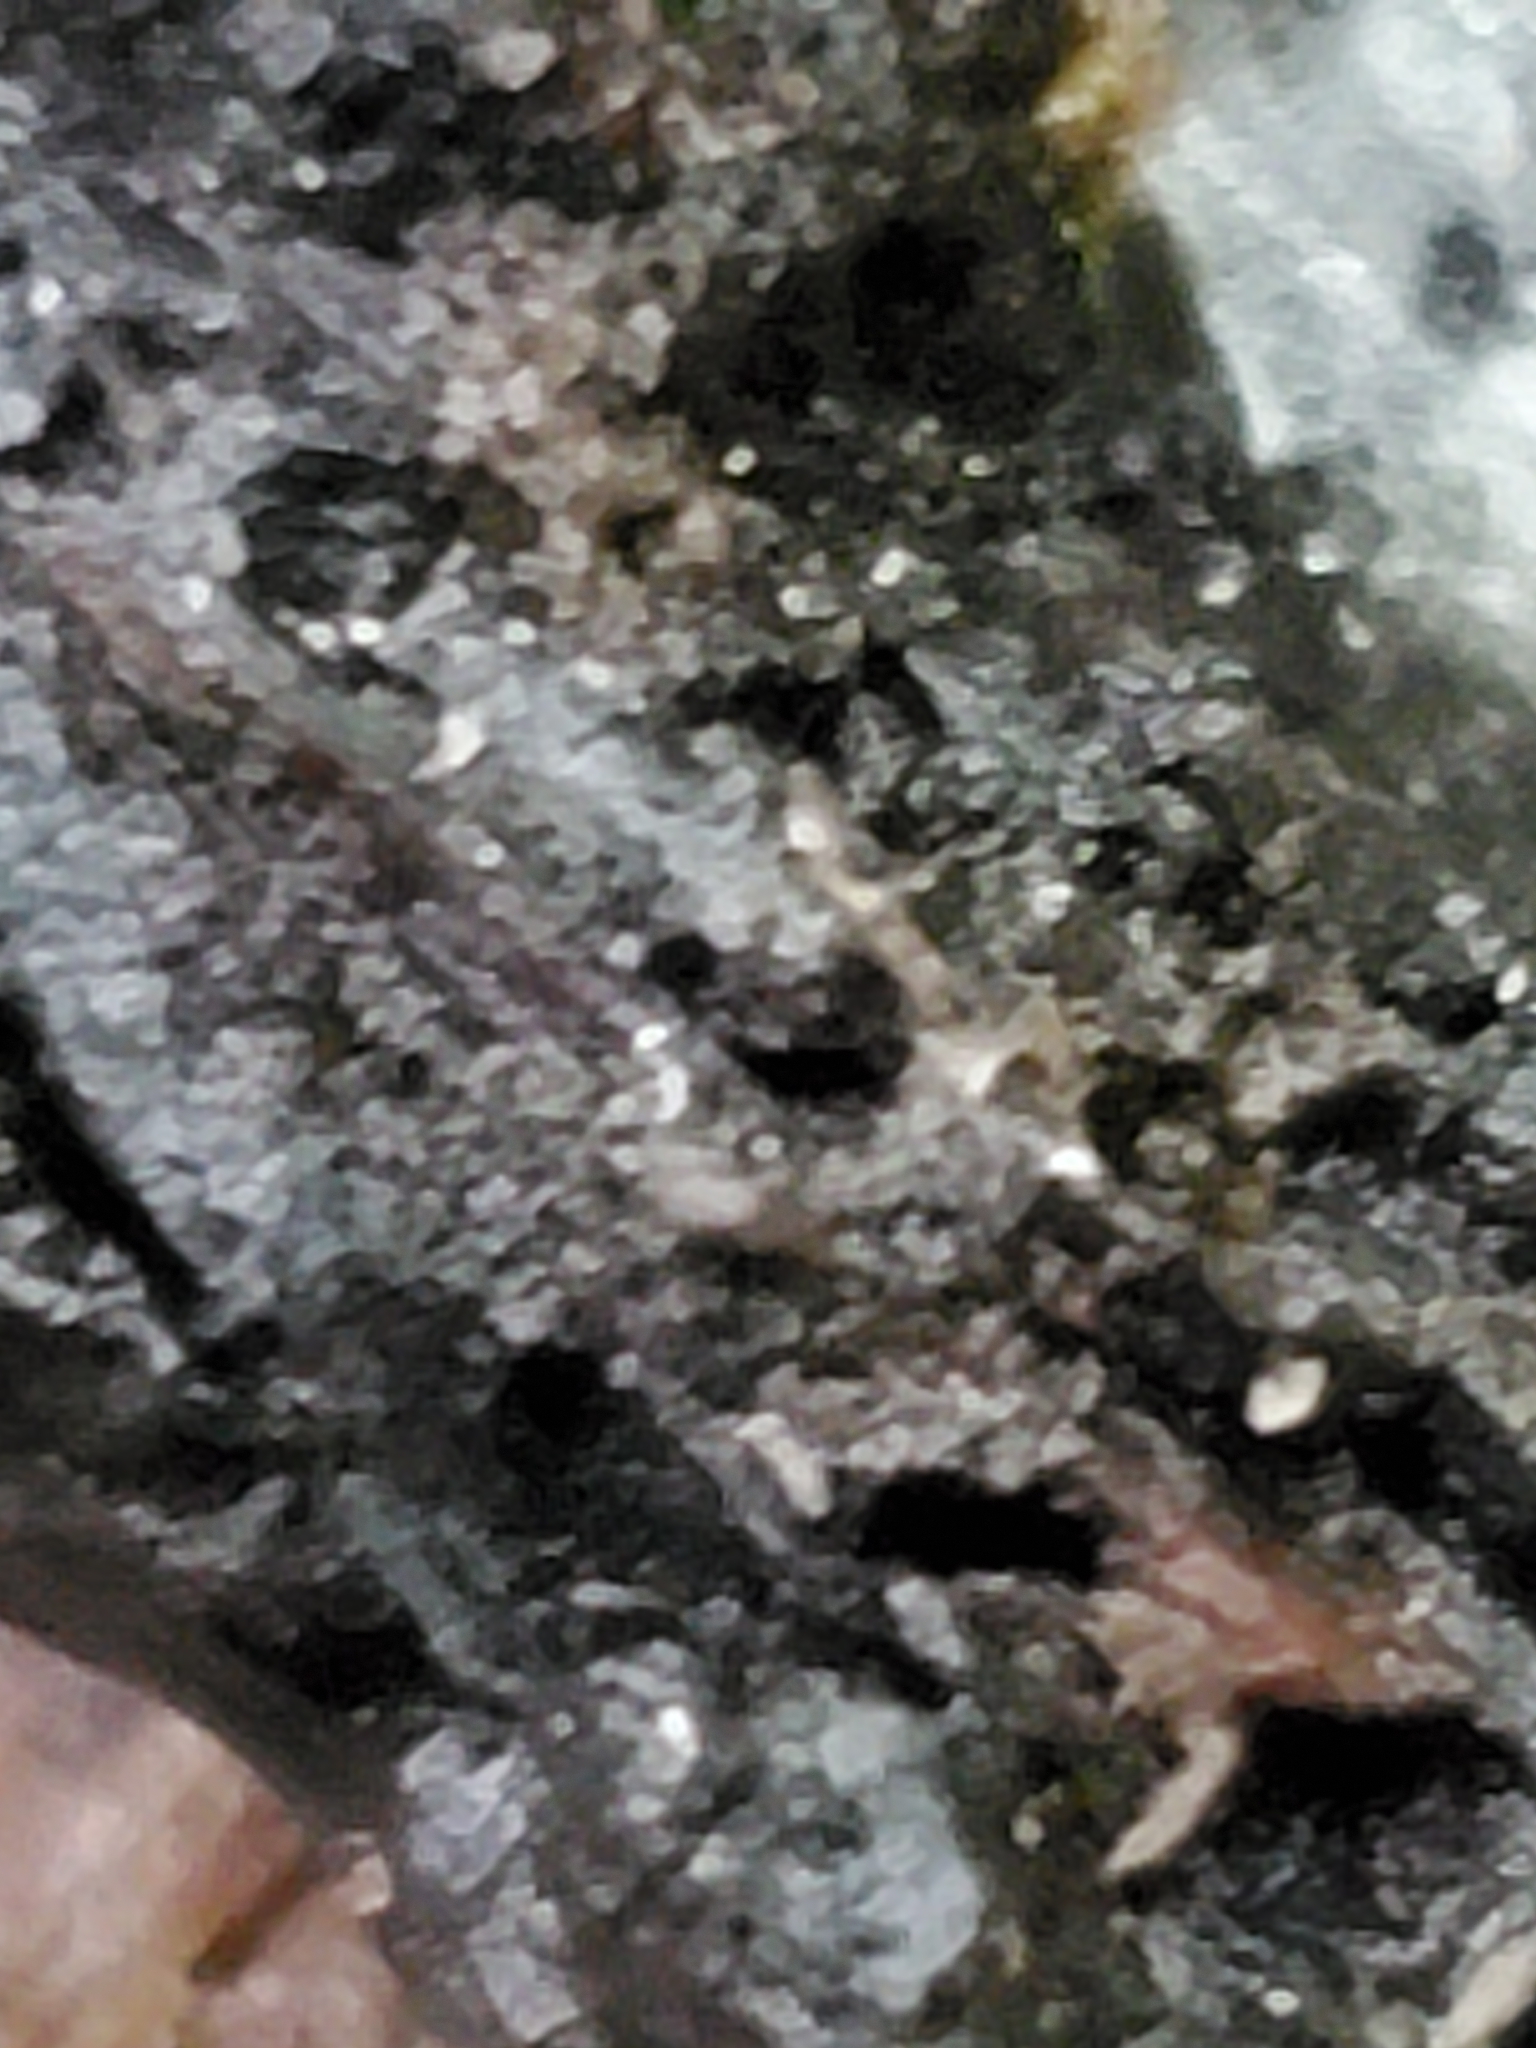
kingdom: Fungi
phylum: Basidiomycota
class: Agaricomycetes
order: Auriculariales
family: Auriculariaceae
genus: Exidia
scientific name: Exidia glandulosa
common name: Witches' butter
